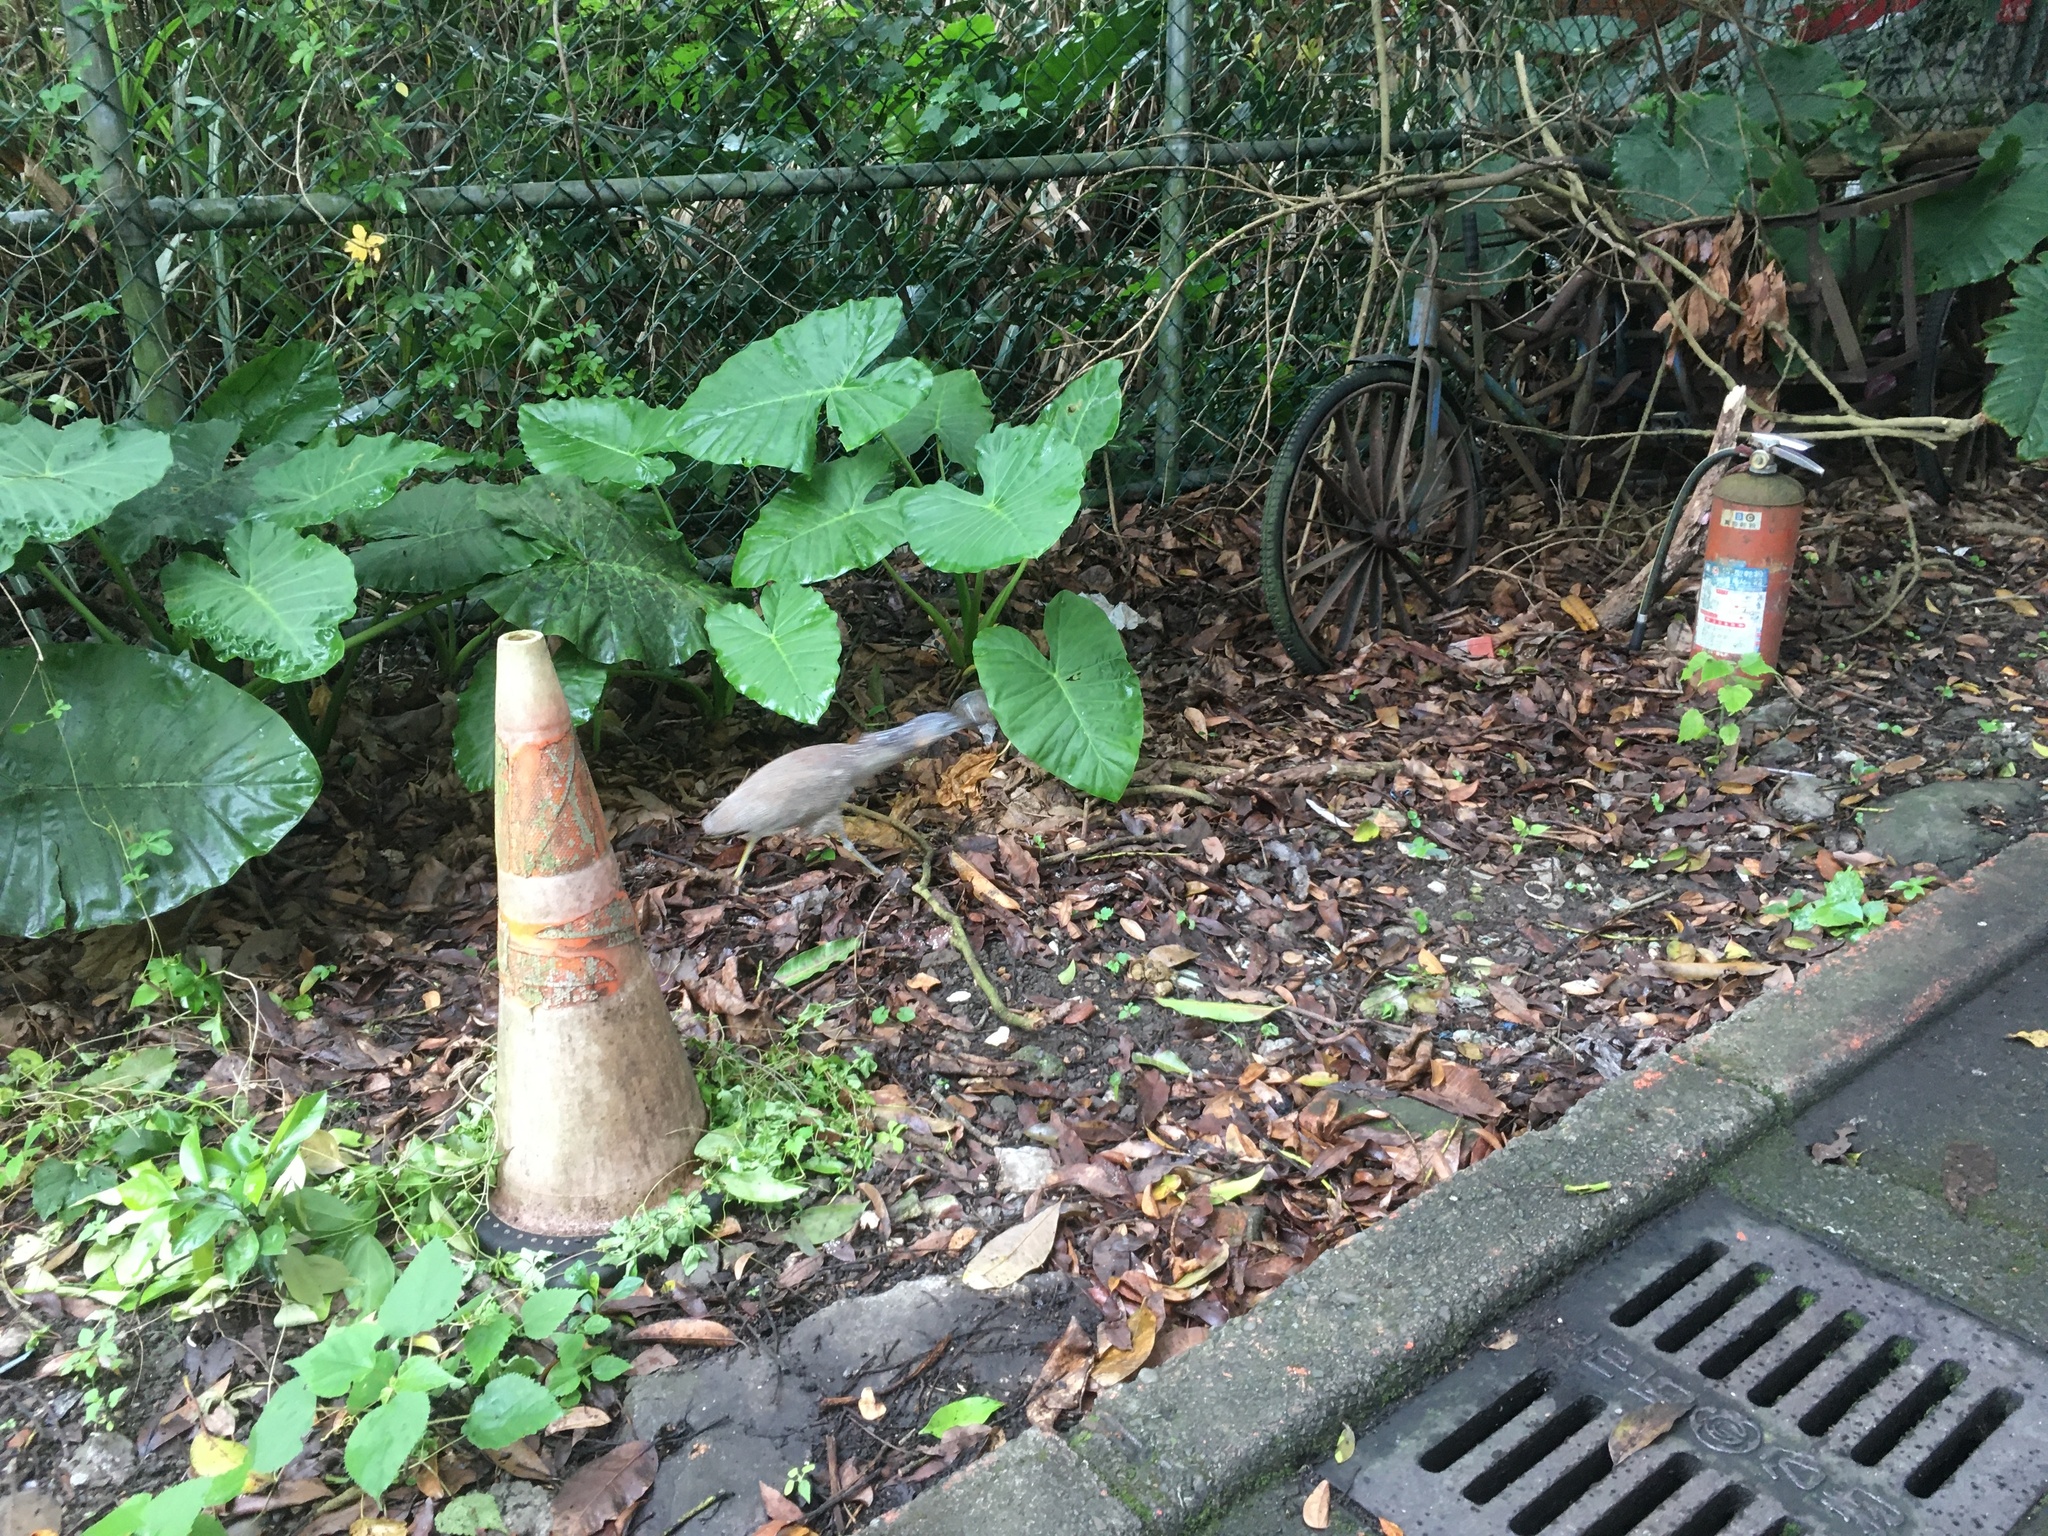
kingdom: Animalia
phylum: Chordata
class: Aves
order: Pelecaniformes
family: Ardeidae
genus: Gorsachius
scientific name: Gorsachius melanolophus
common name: Malayan night heron
